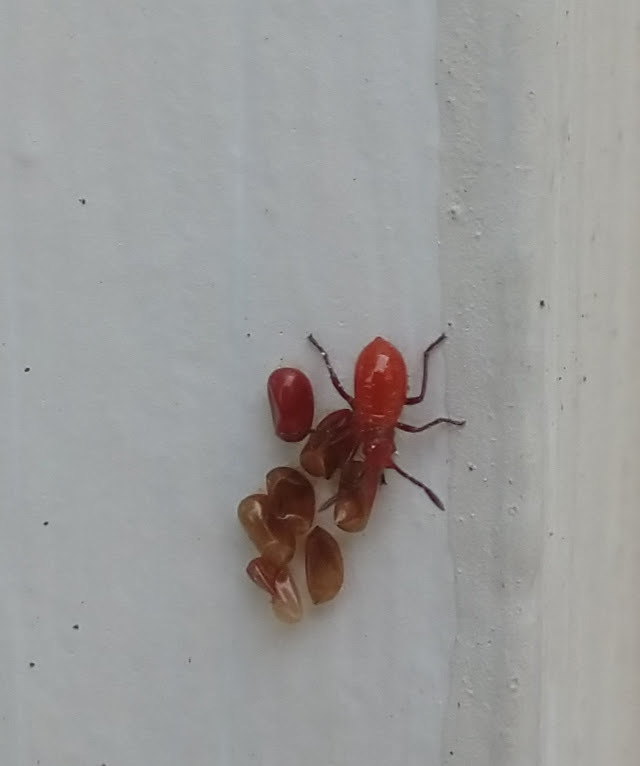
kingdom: Animalia
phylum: Arthropoda
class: Insecta
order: Hemiptera
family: Rhopalidae
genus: Boisea
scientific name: Boisea trivittata
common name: Boxelder bug
